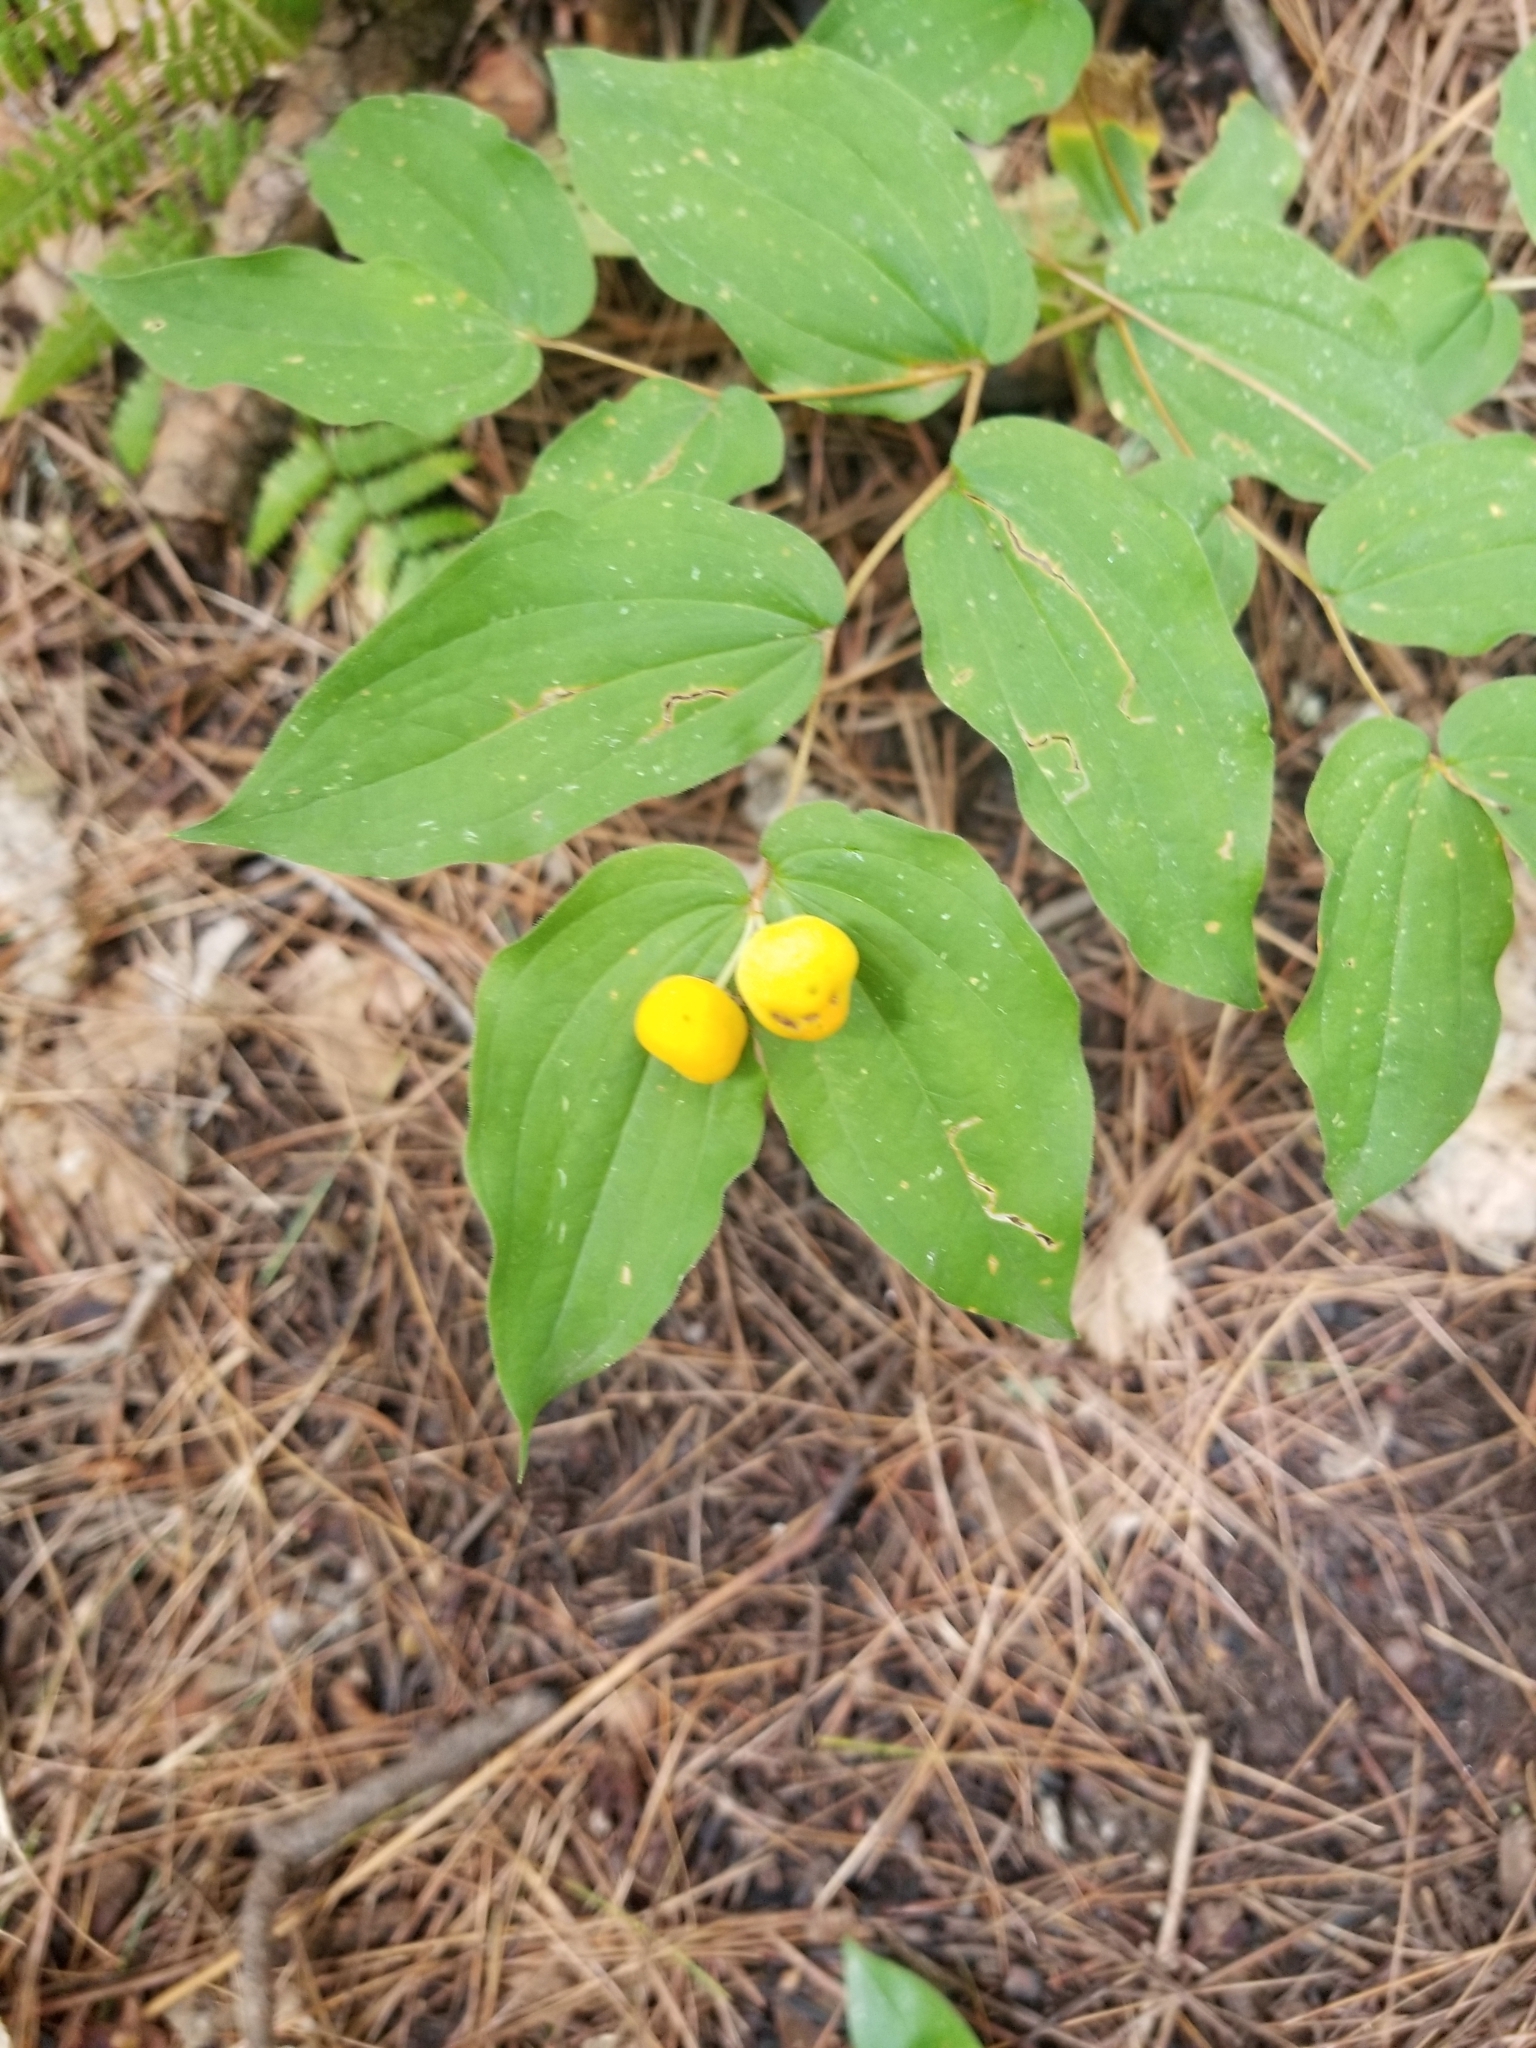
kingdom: Plantae
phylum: Tracheophyta
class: Liliopsida
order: Liliales
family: Liliaceae
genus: Prosartes
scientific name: Prosartes trachycarpa
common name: Rough-fruit fairy-bells
